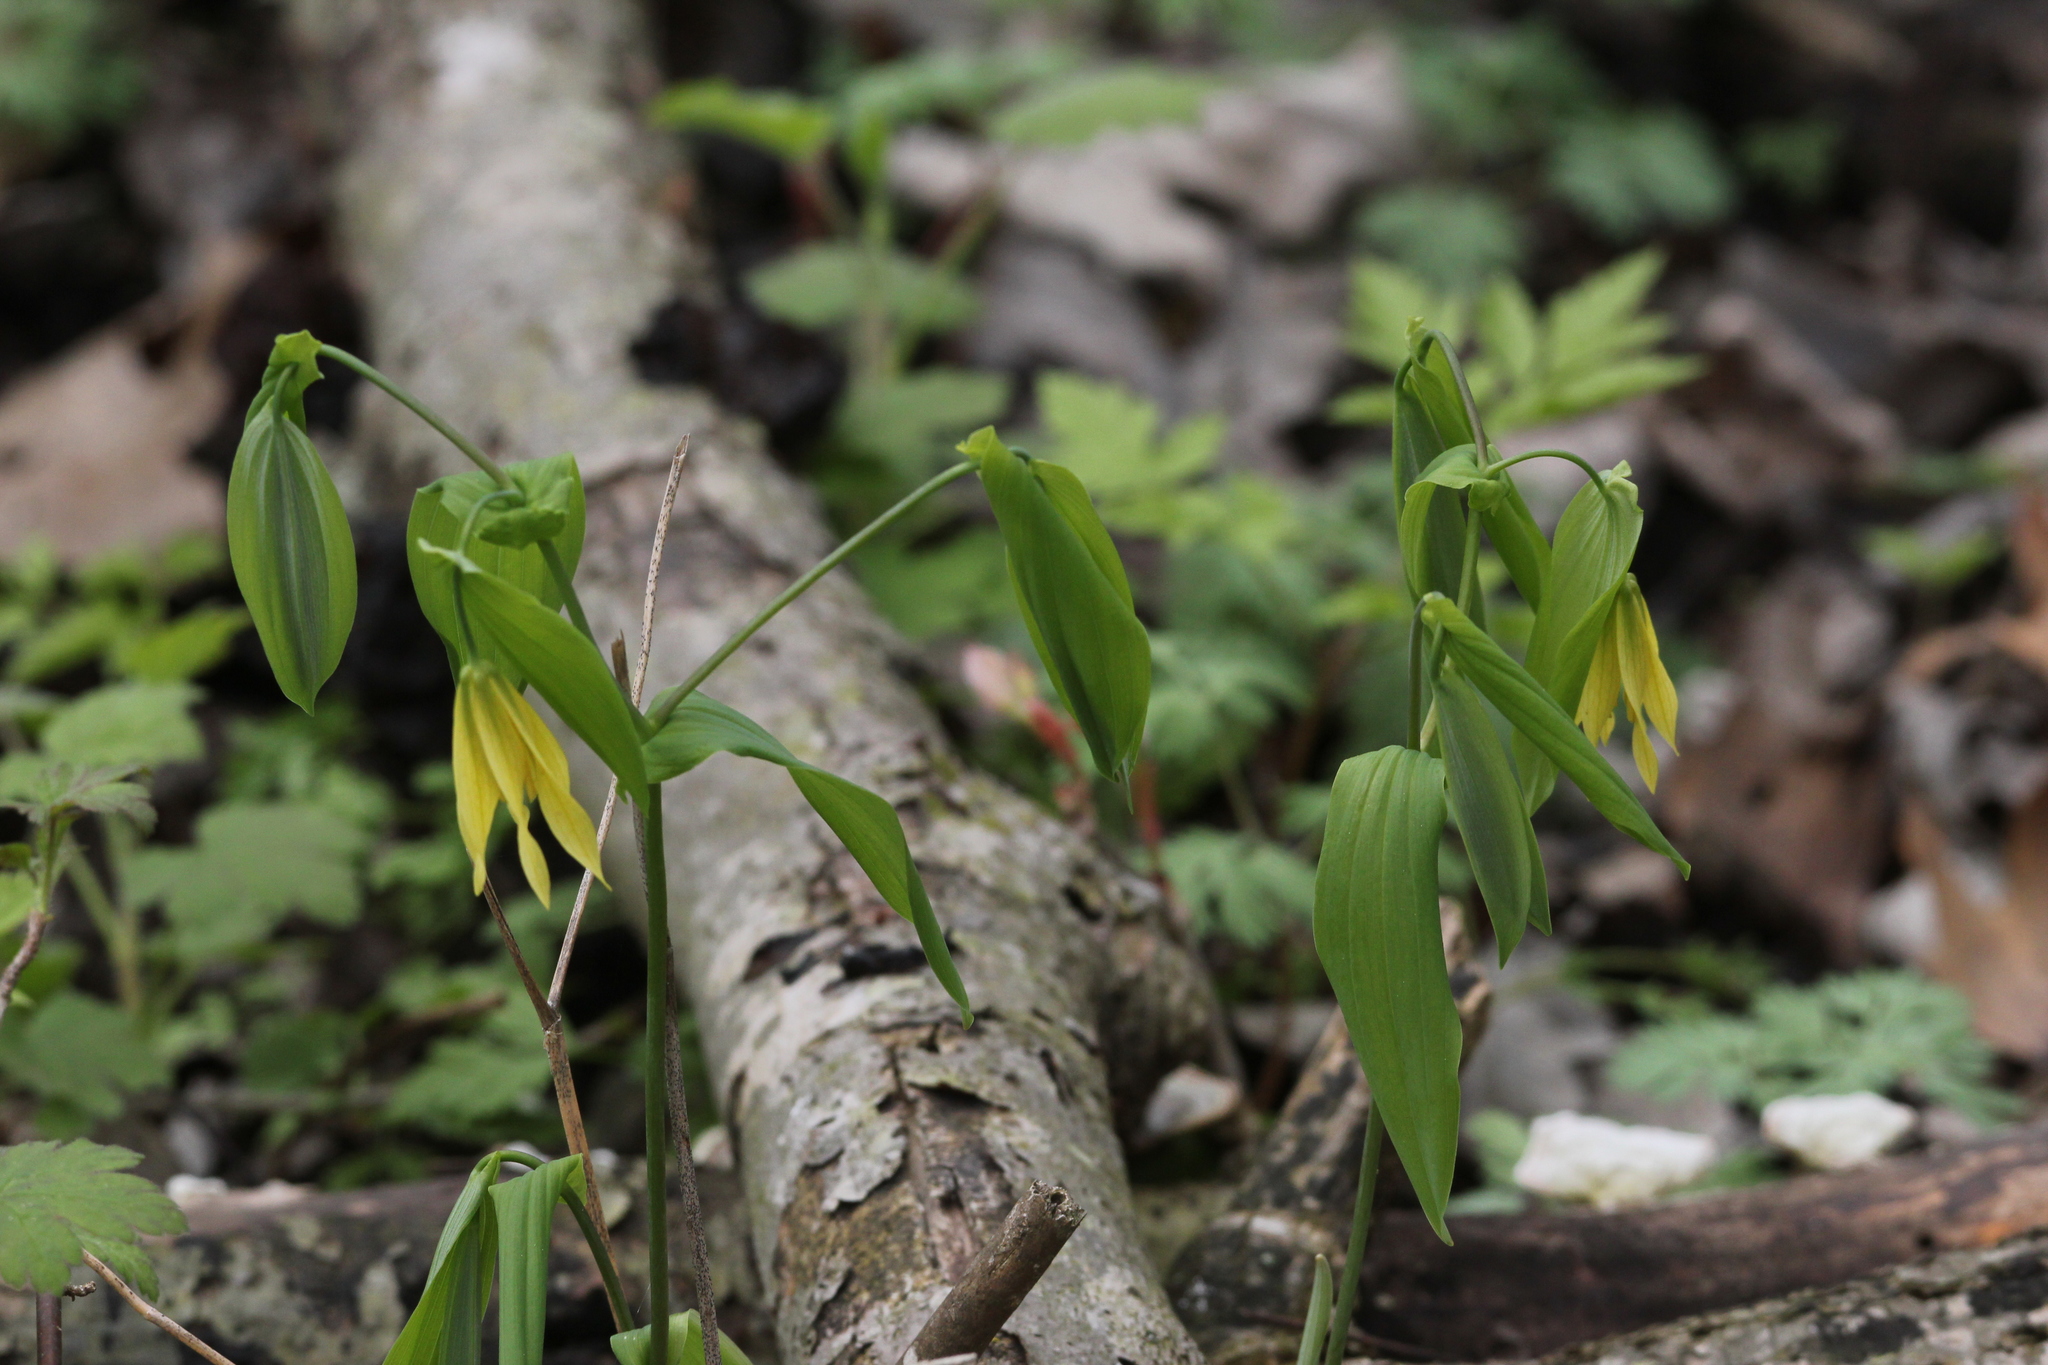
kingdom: Plantae
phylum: Tracheophyta
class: Liliopsida
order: Liliales
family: Colchicaceae
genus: Uvularia
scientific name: Uvularia grandiflora
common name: Bellwort
